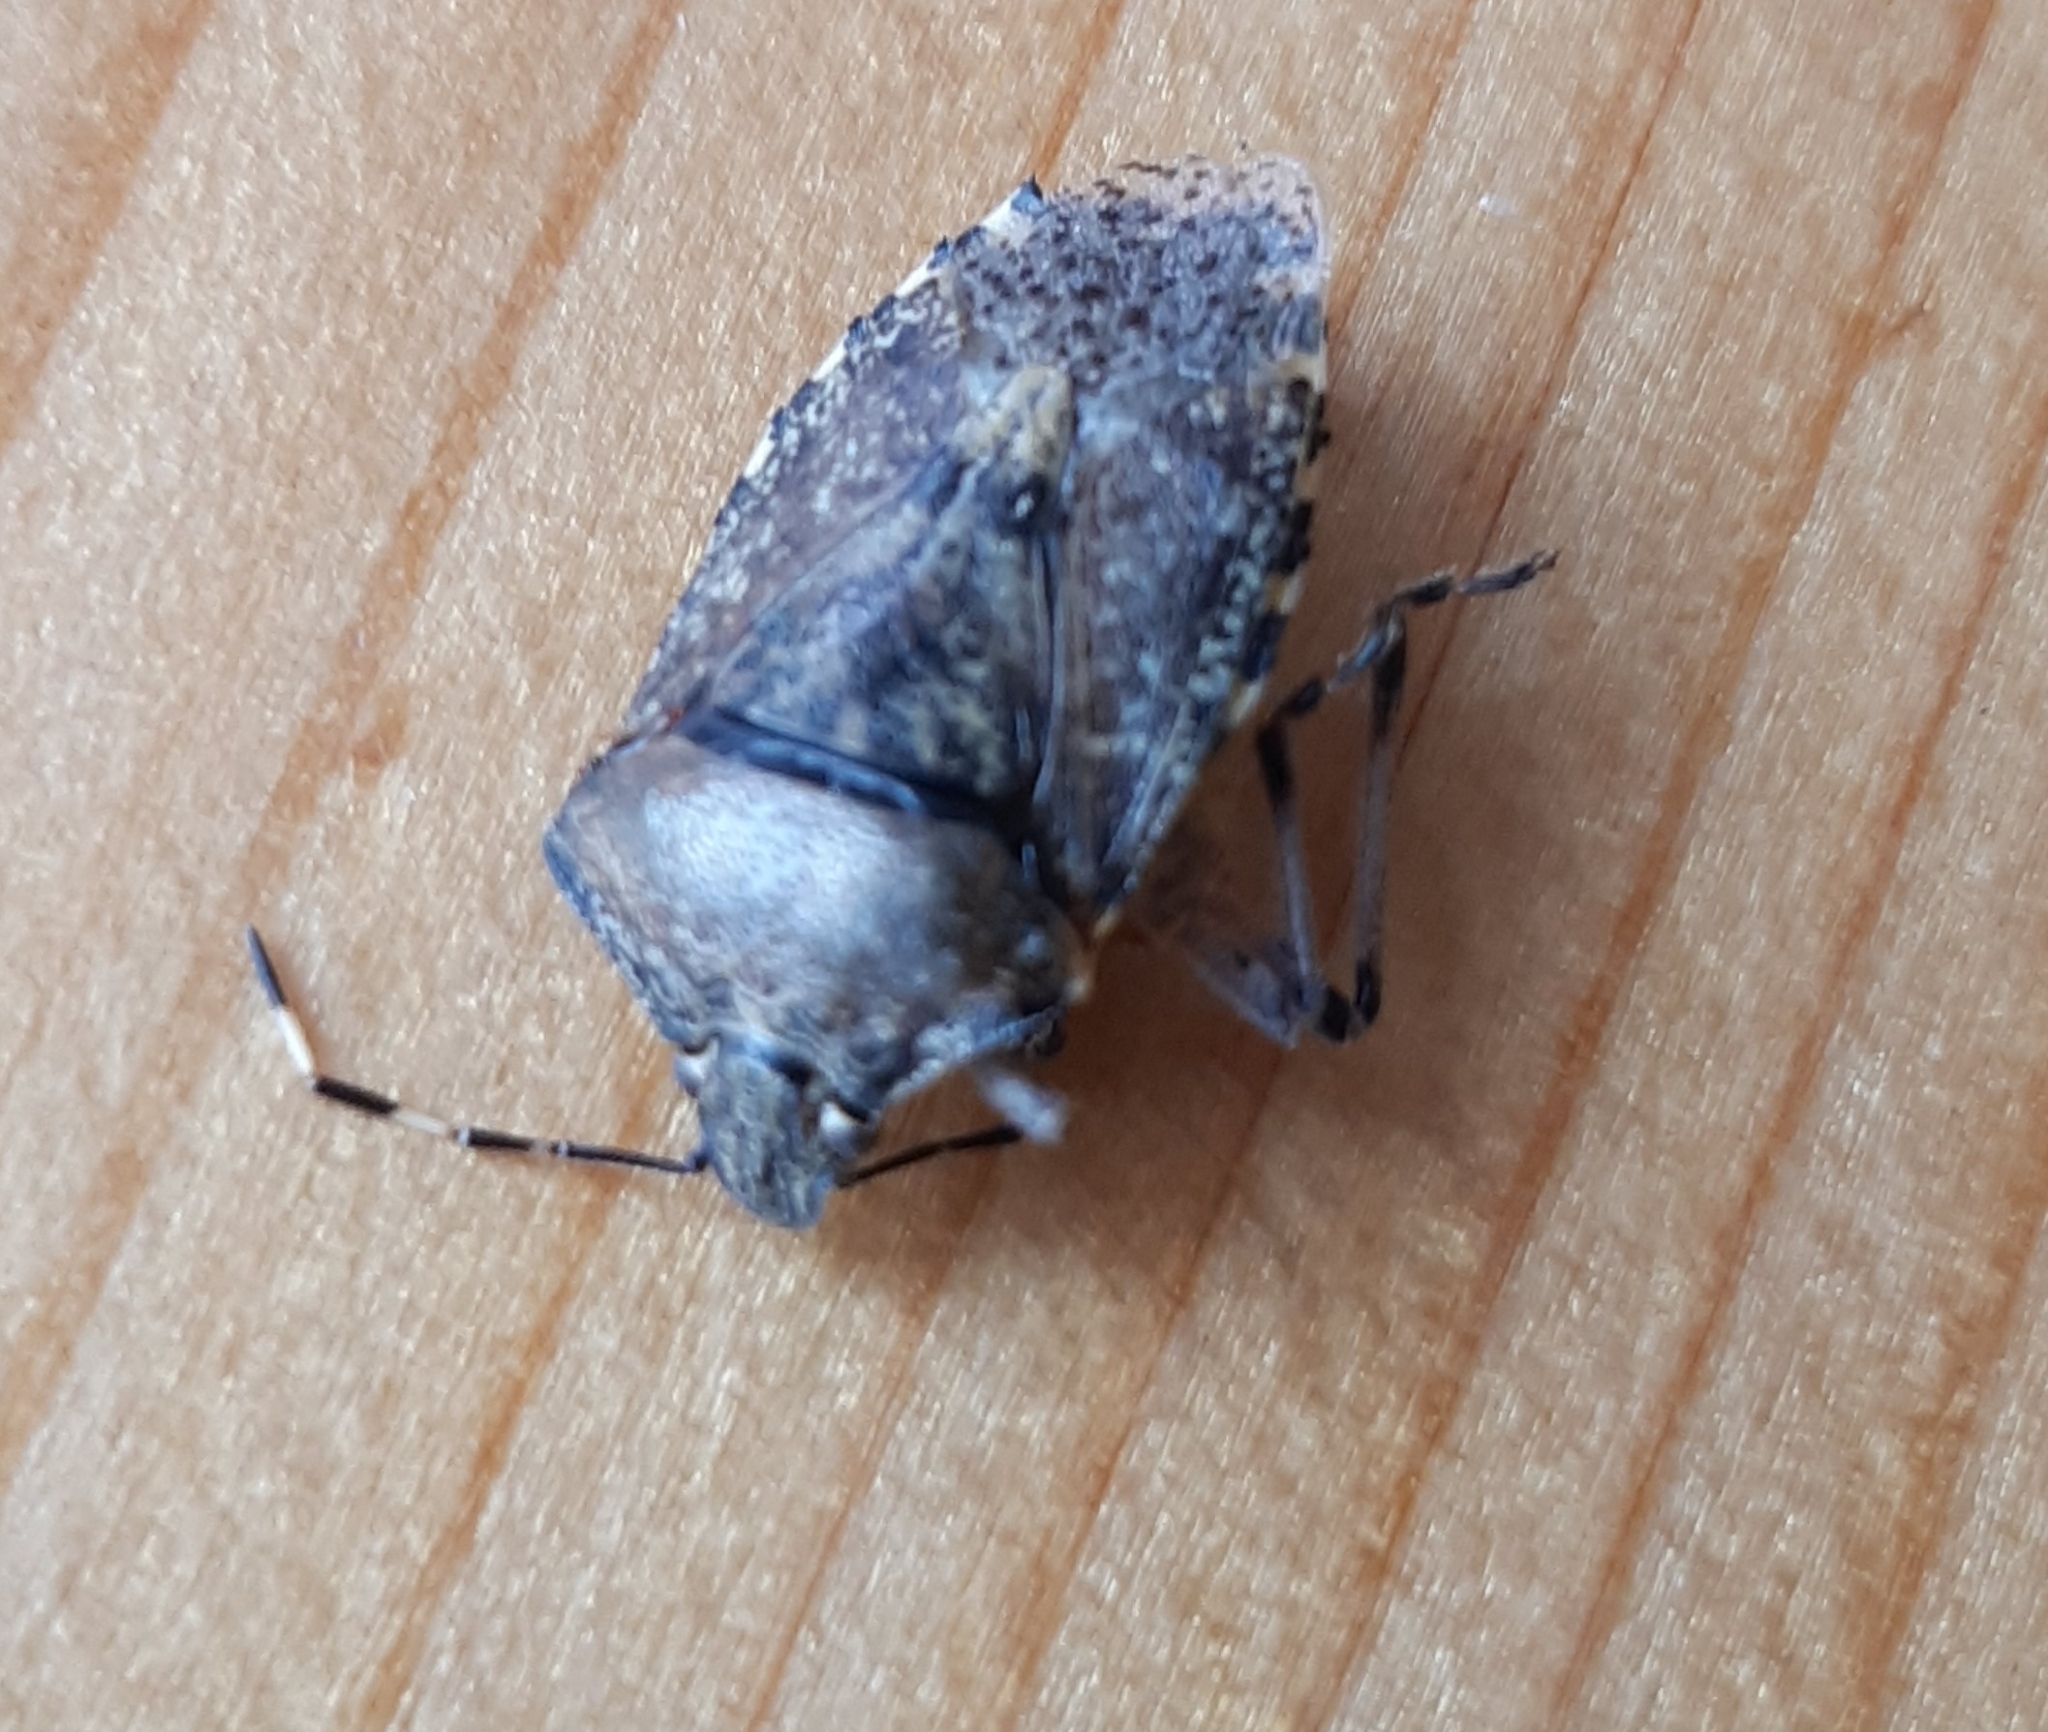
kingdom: Animalia
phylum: Arthropoda
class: Insecta
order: Hemiptera
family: Pentatomidae
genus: Rhaphigaster
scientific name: Rhaphigaster nebulosa
